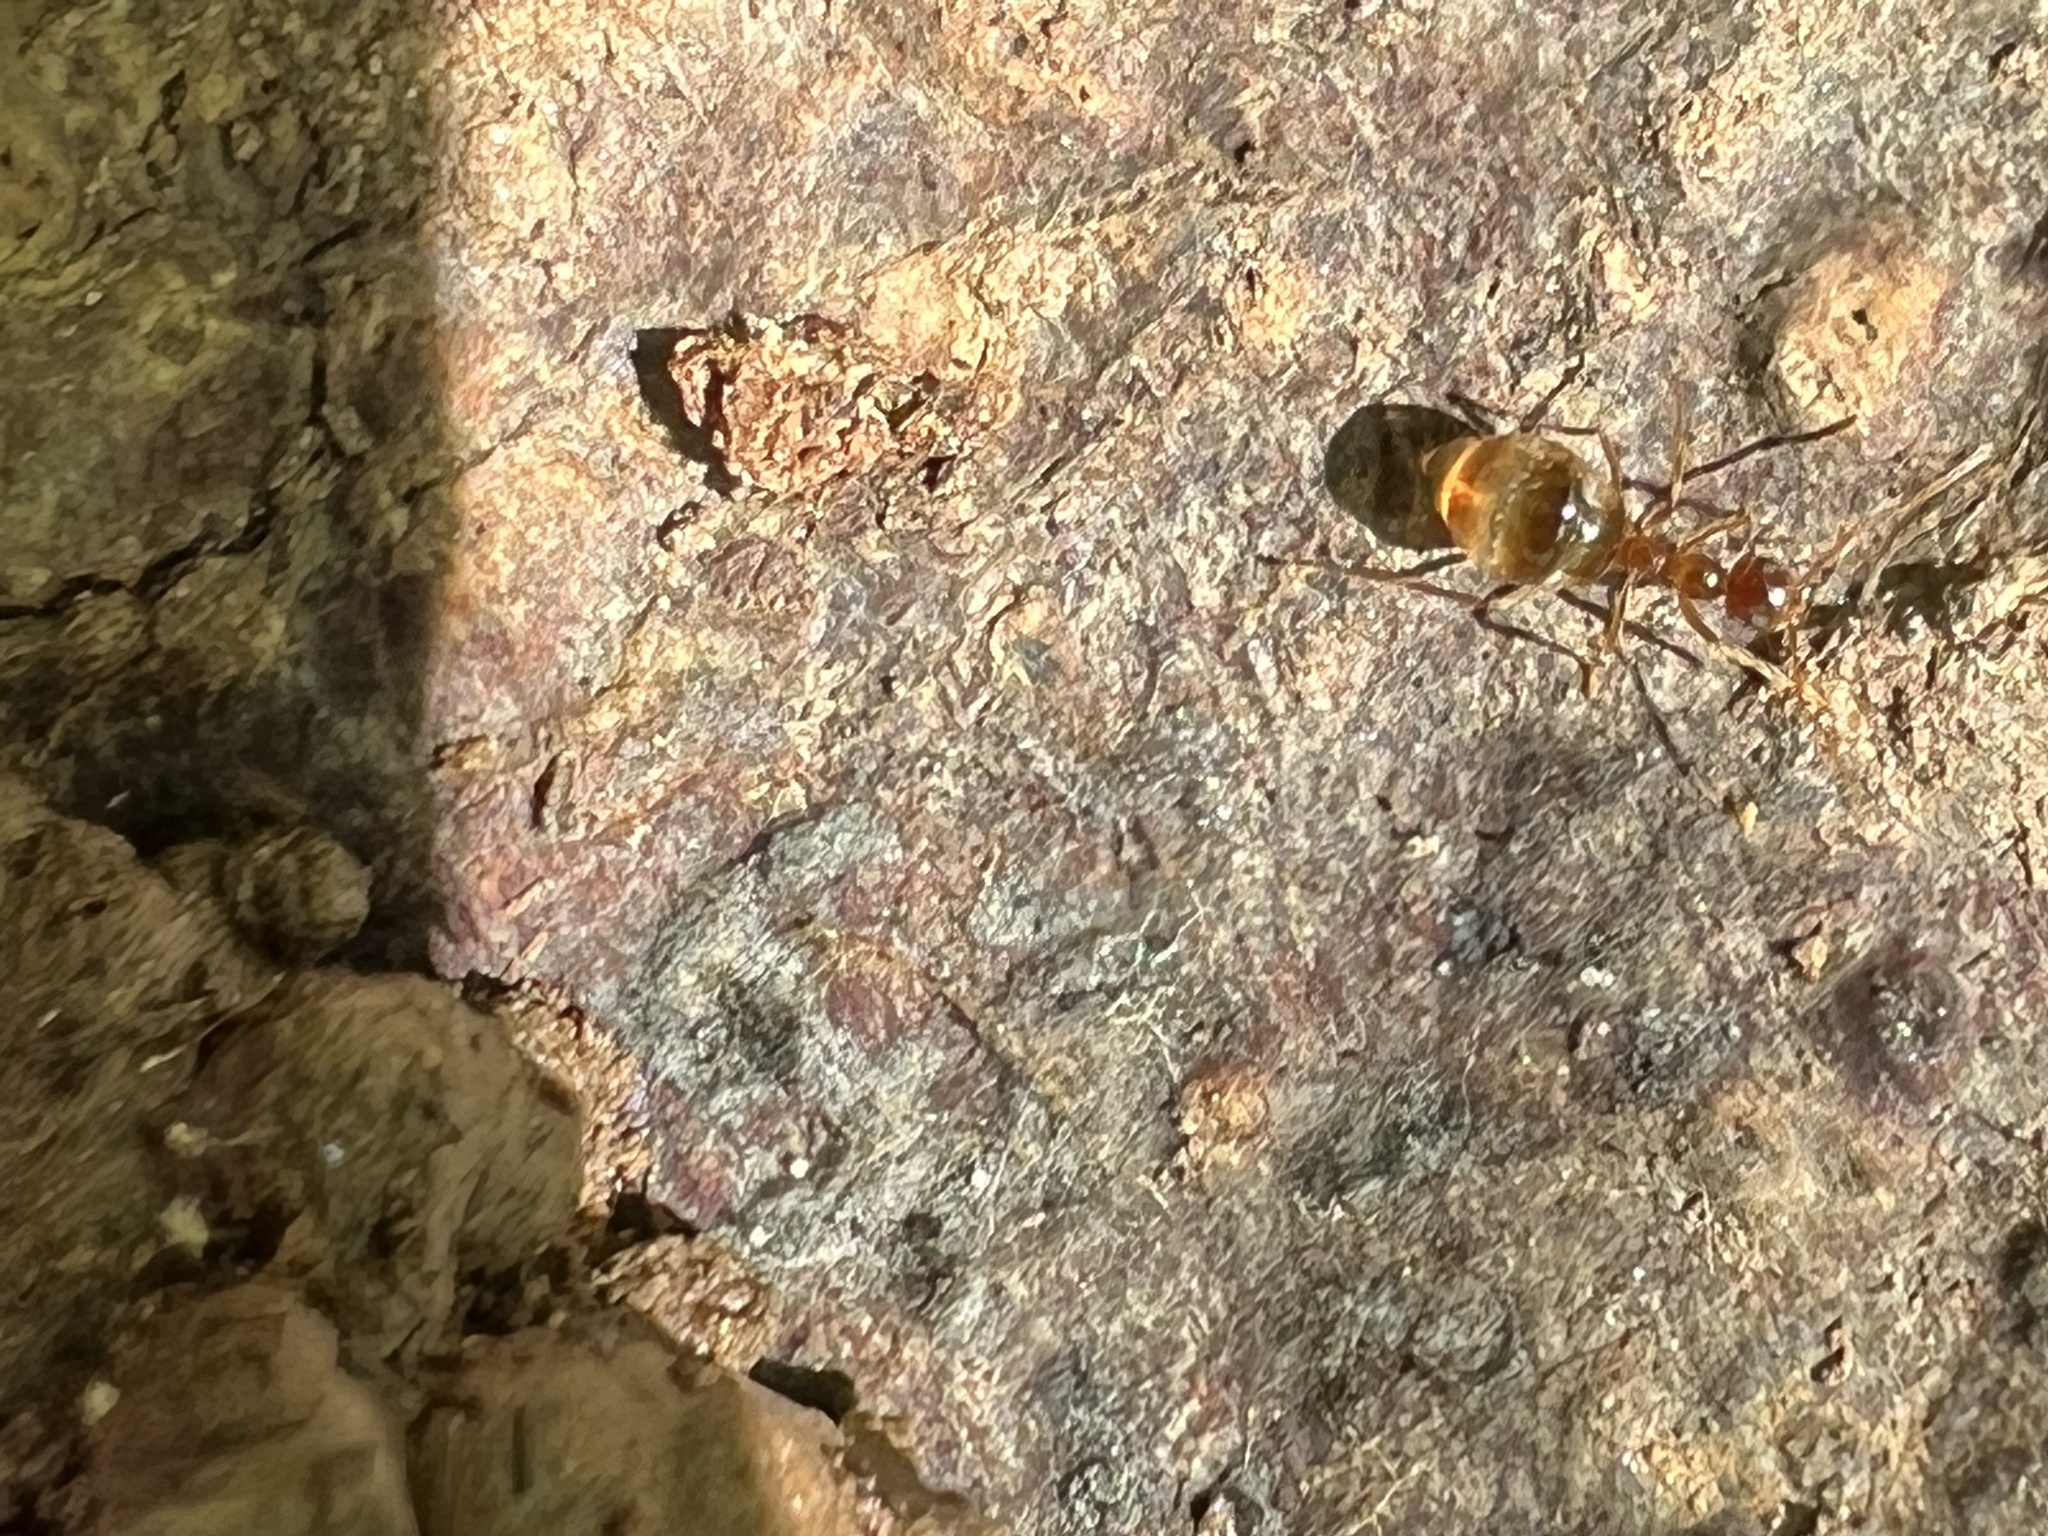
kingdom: Animalia
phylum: Arthropoda
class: Insecta
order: Hymenoptera
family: Formicidae
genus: Prenolepis
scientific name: Prenolepis imparis
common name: Small honey ant
